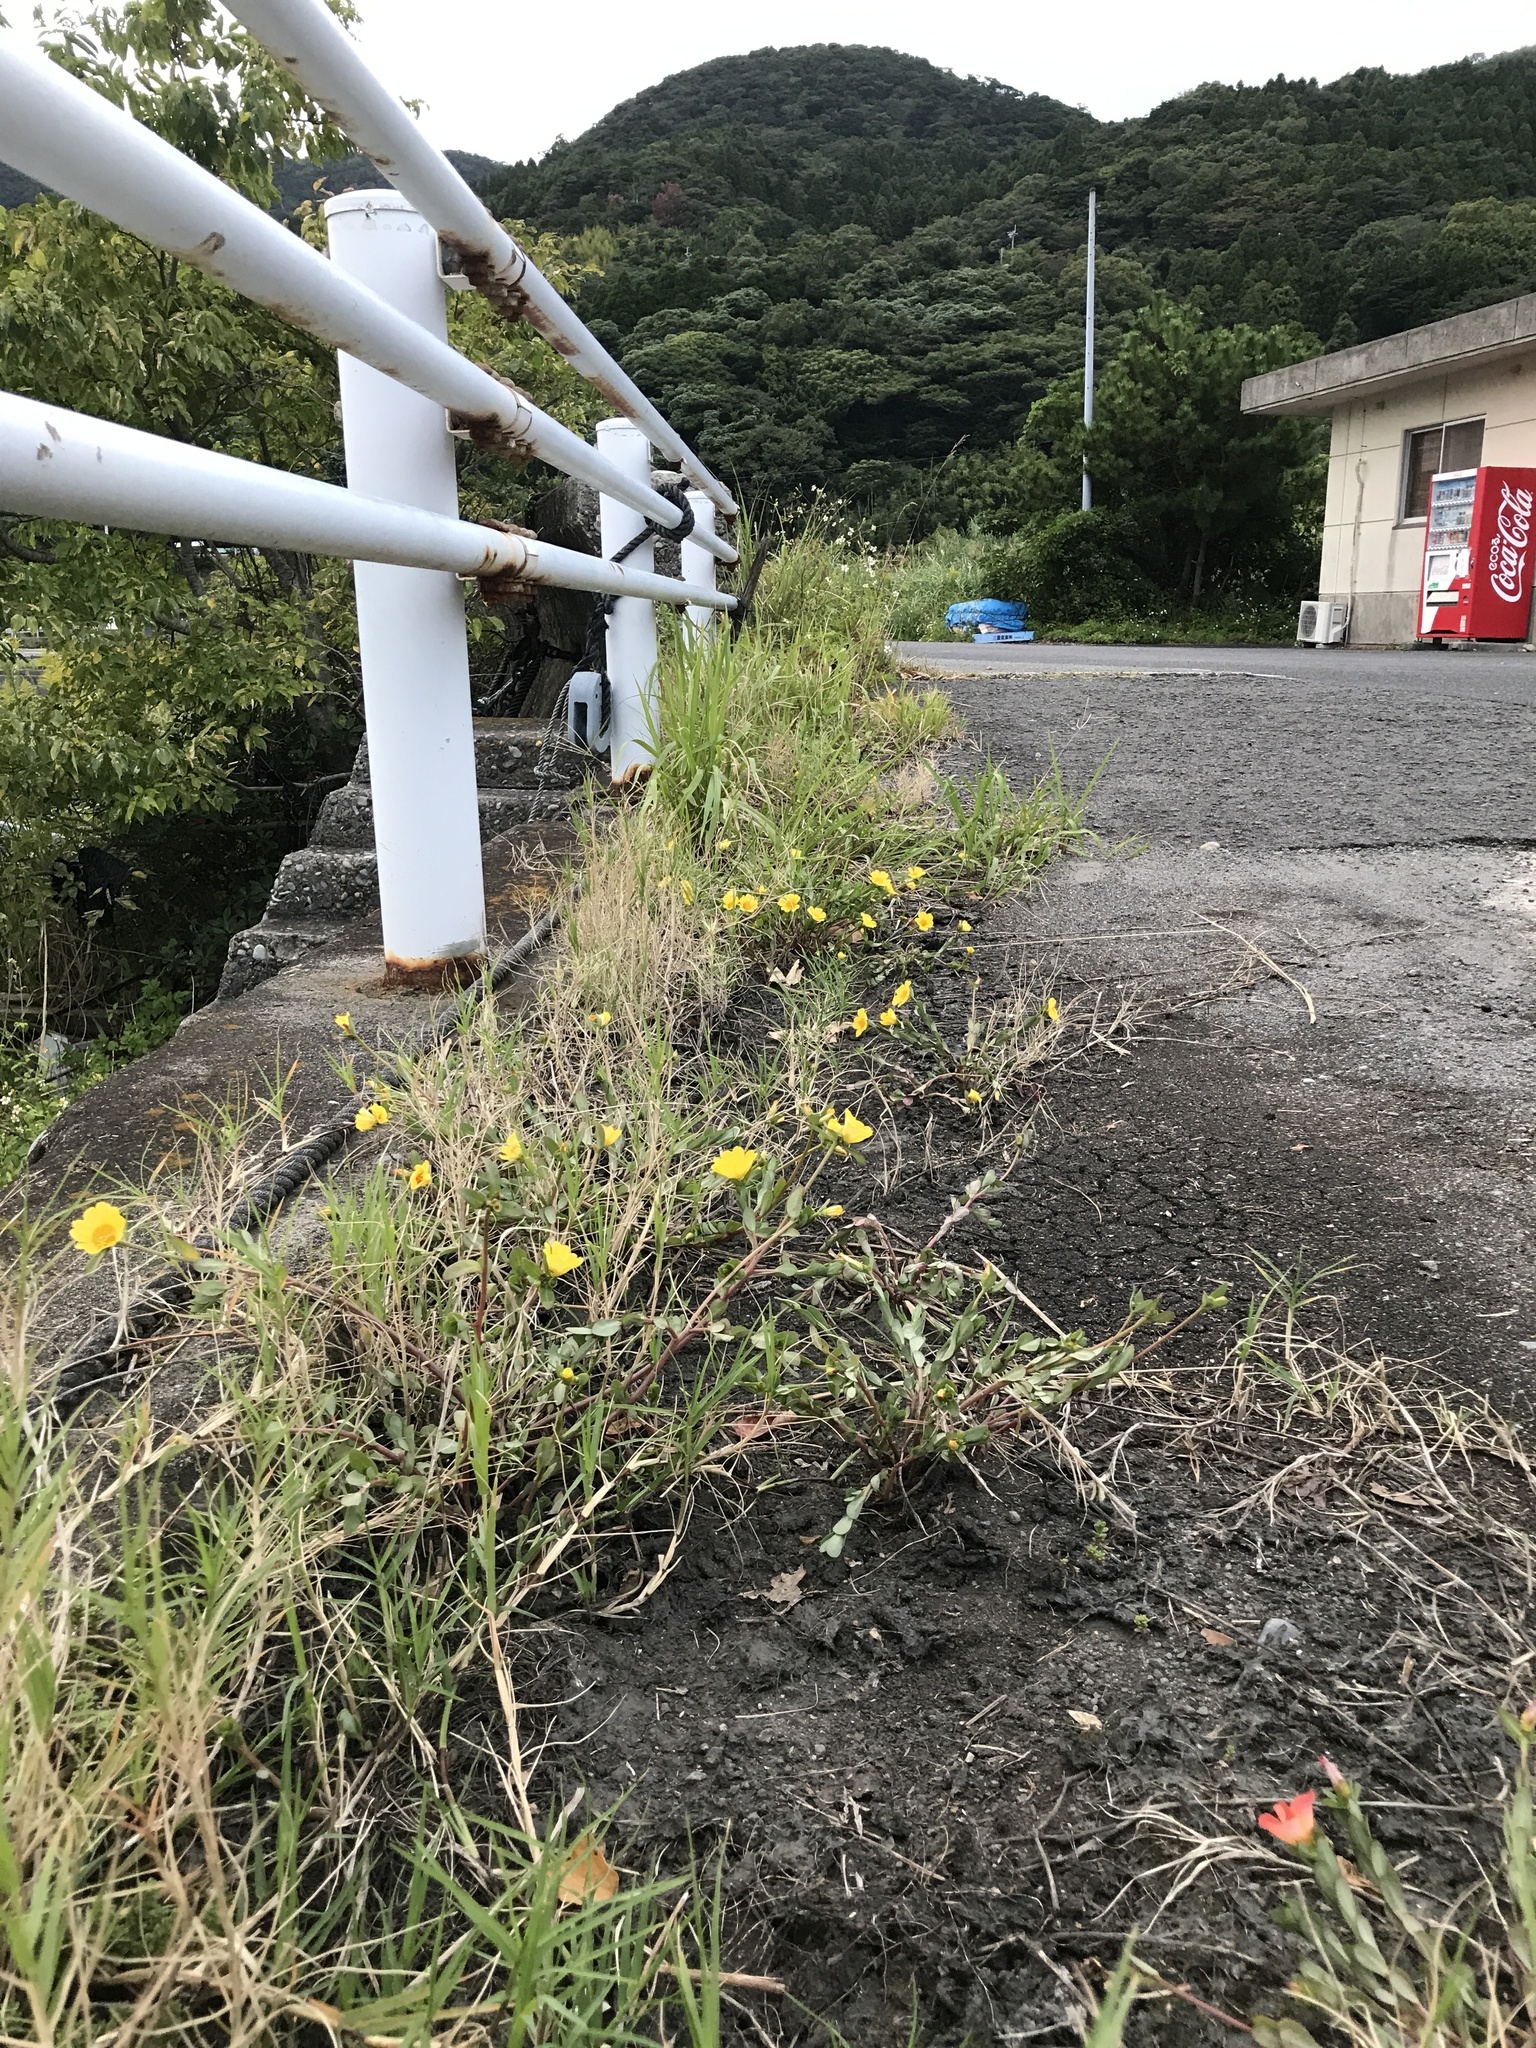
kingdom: Plantae
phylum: Tracheophyta
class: Magnoliopsida
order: Caryophyllales
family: Portulacaceae
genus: Portulaca
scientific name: Portulaca umbraticola
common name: Wingpod purslane
